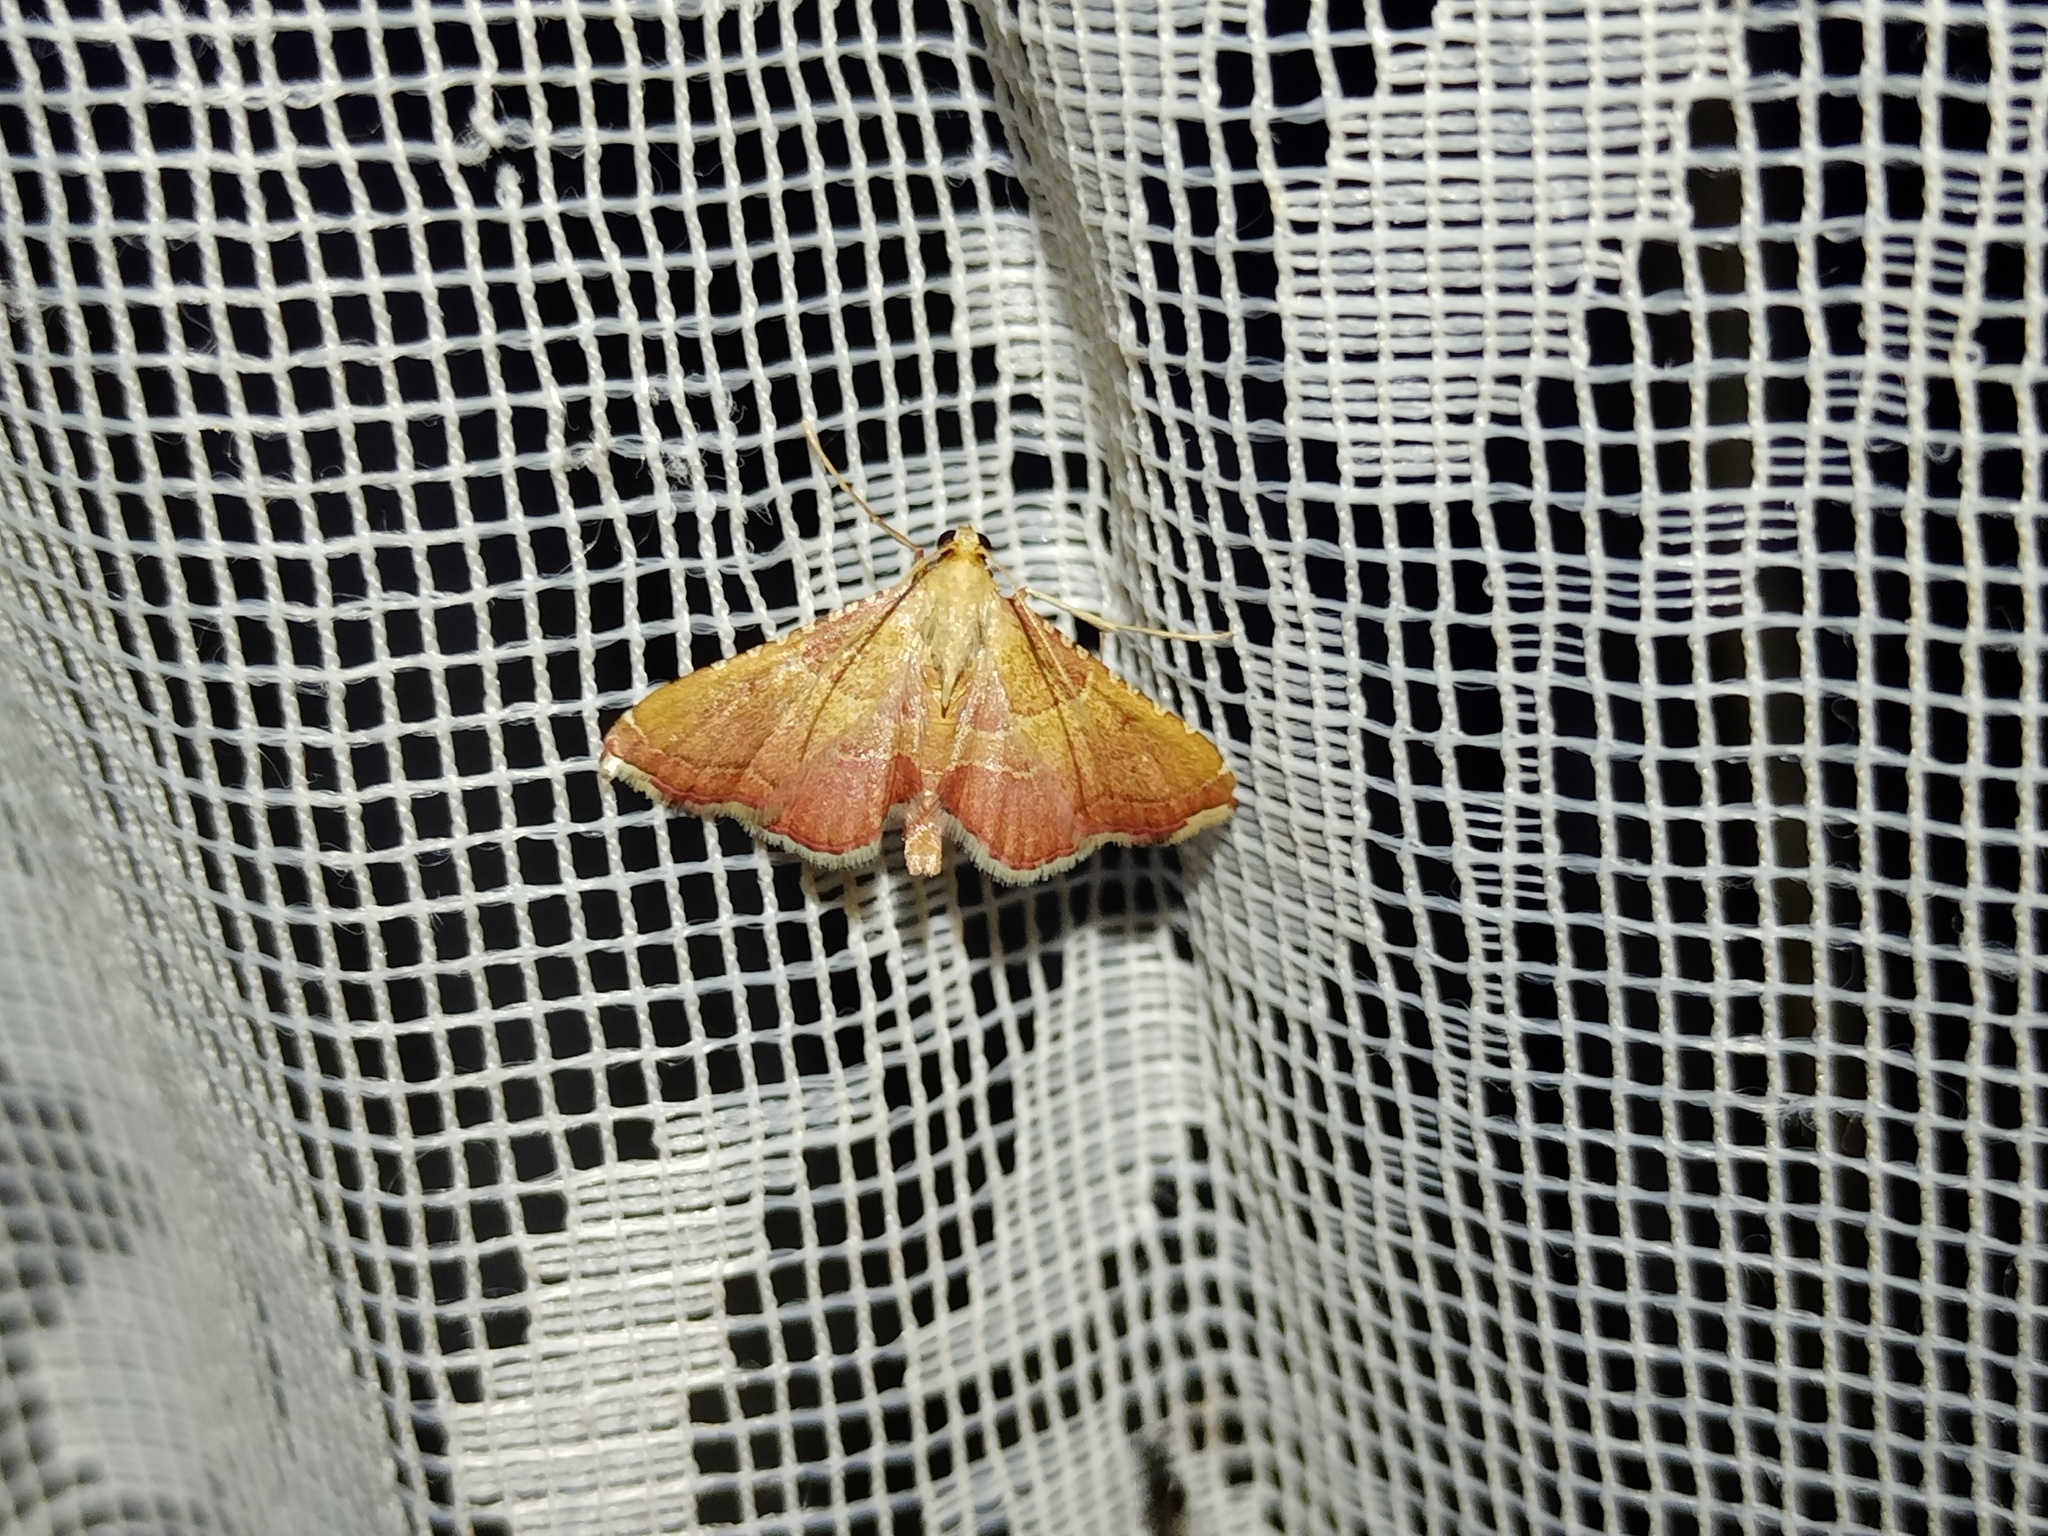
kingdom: Animalia
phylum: Arthropoda
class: Insecta
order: Lepidoptera
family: Pyralidae
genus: Endotricha
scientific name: Endotricha flammealis
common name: Rosy tabby
